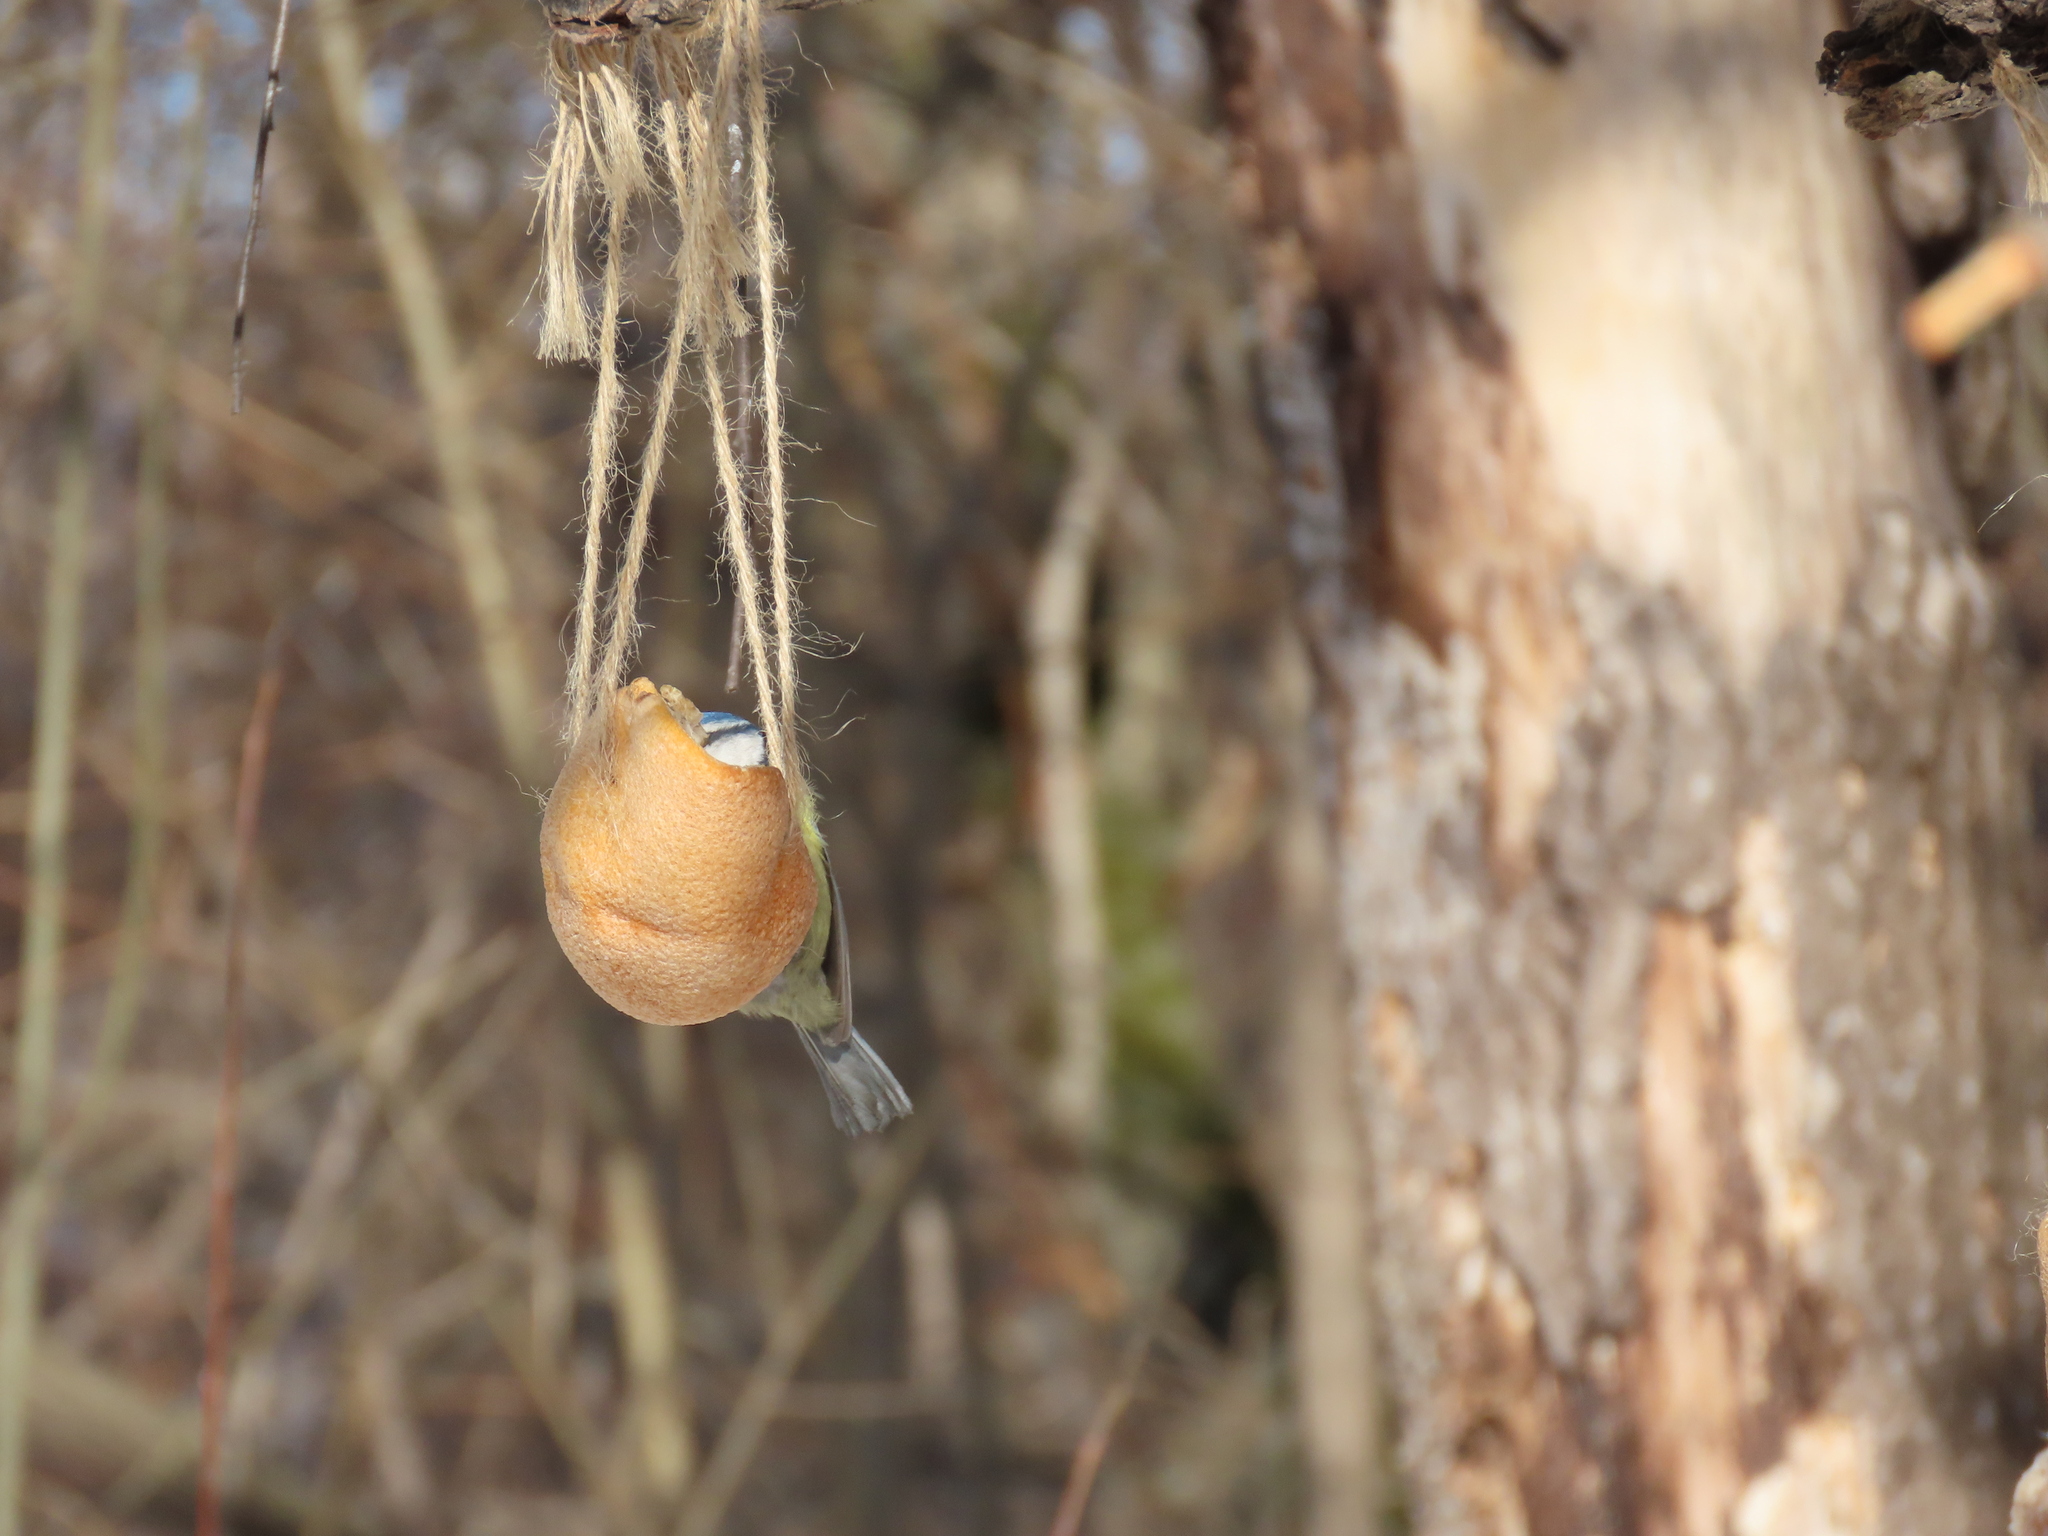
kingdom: Animalia
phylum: Chordata
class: Aves
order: Passeriformes
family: Paridae
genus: Cyanistes
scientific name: Cyanistes caeruleus
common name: Eurasian blue tit
